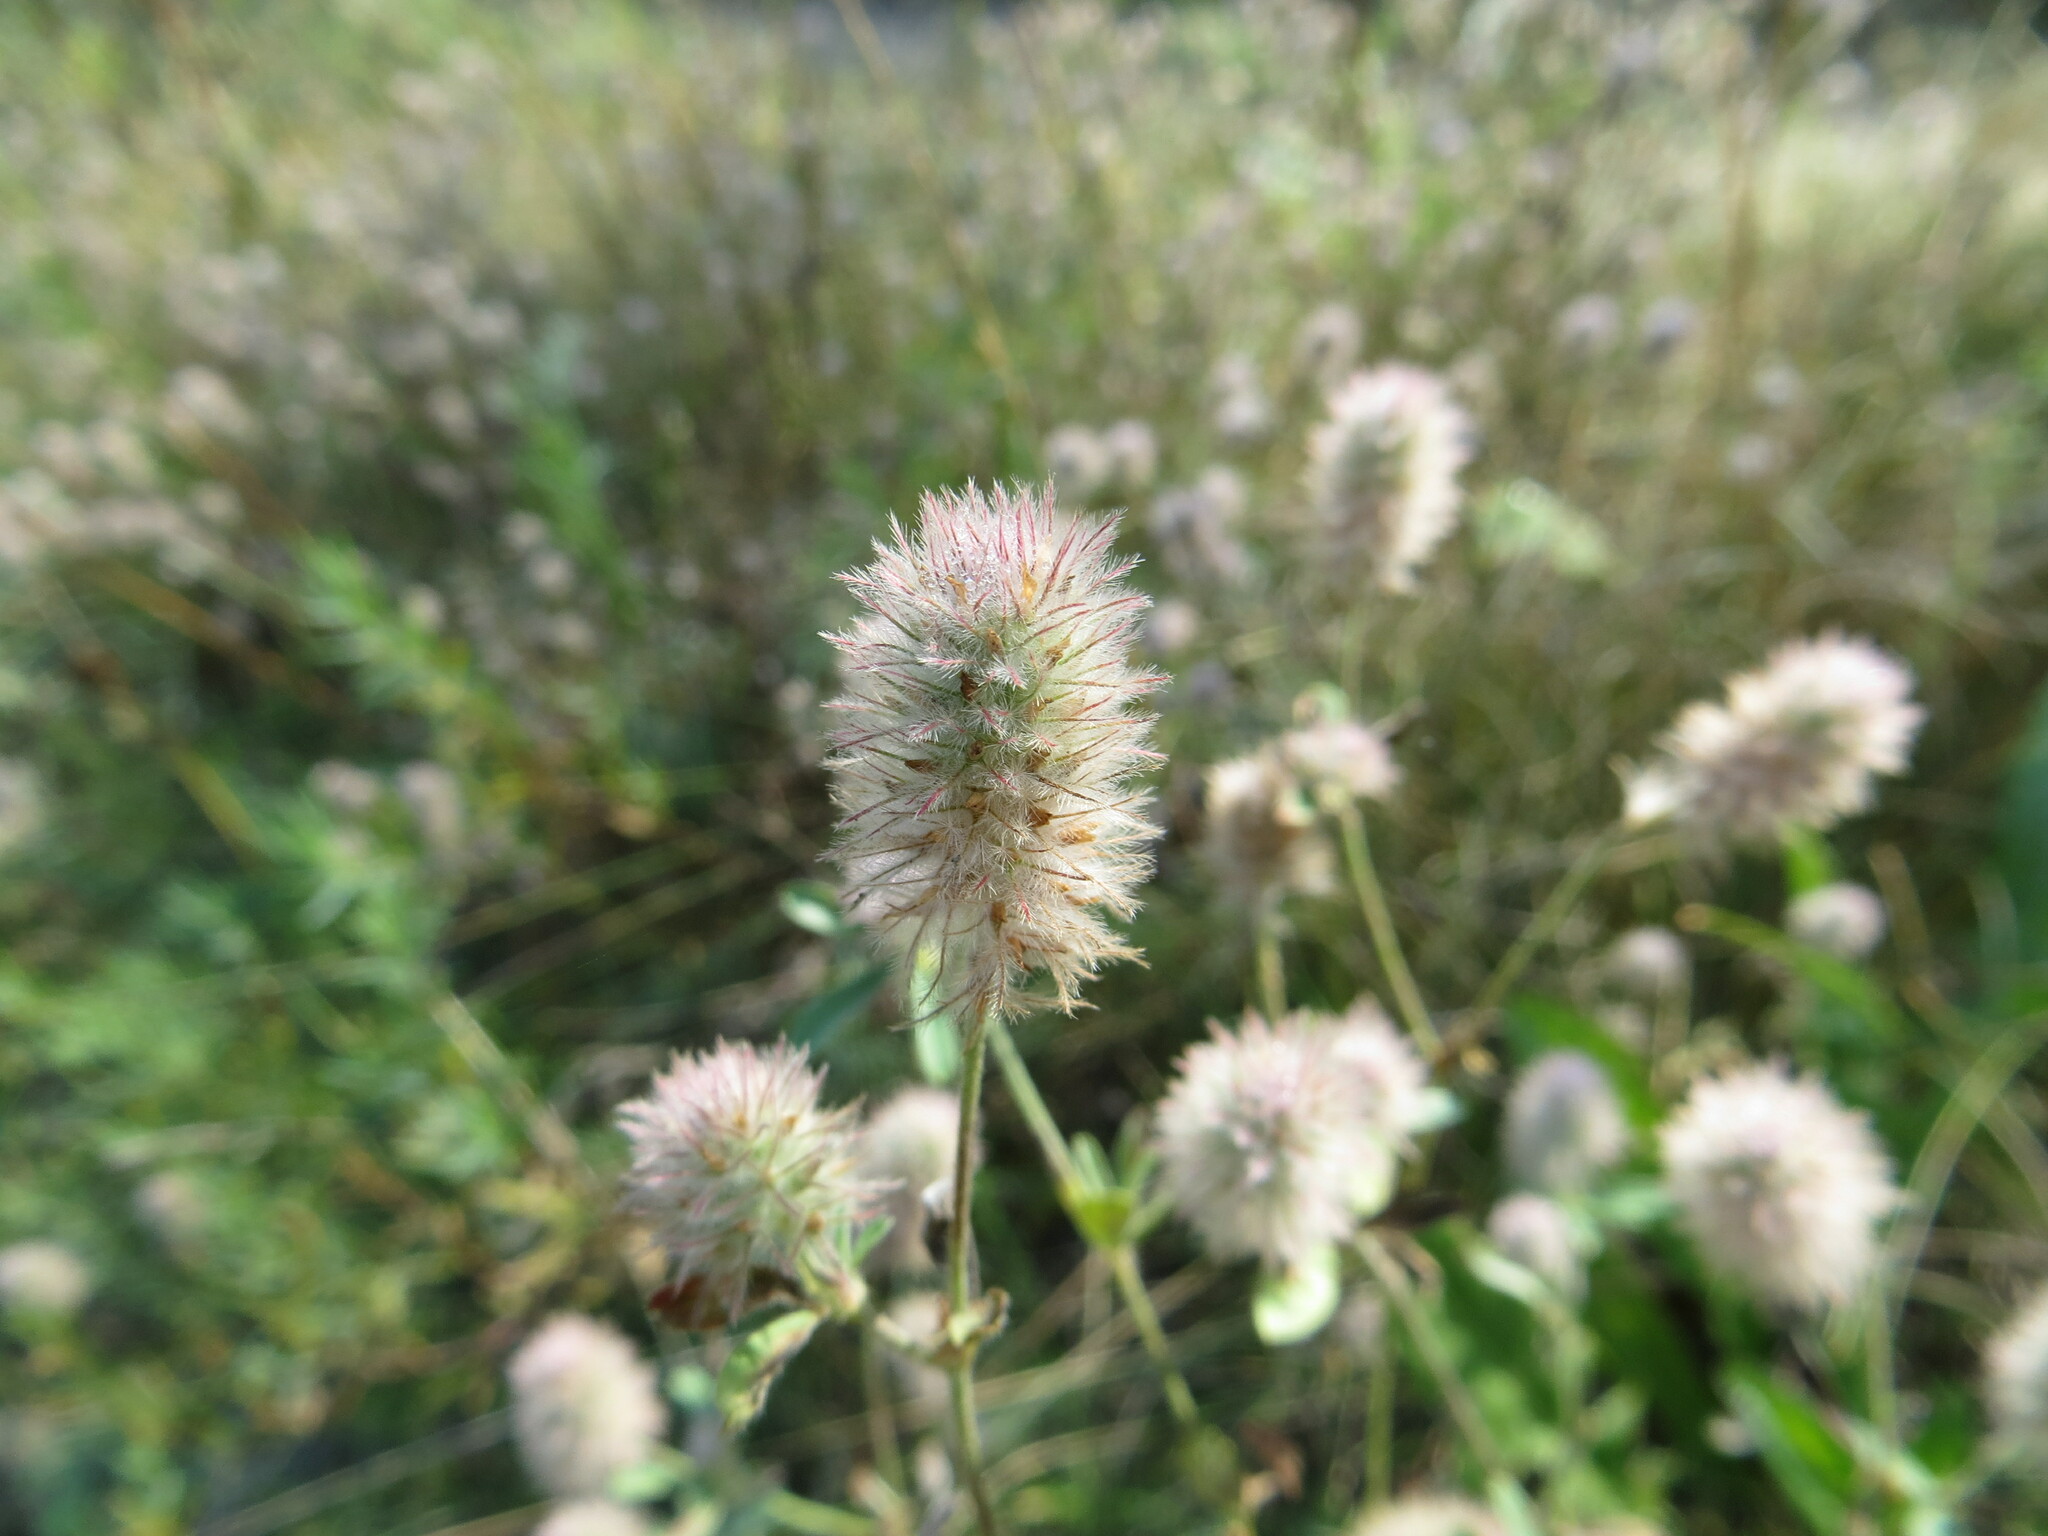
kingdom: Plantae
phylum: Tracheophyta
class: Magnoliopsida
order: Fabales
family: Fabaceae
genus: Trifolium
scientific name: Trifolium arvense
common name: Hare's-foot clover
